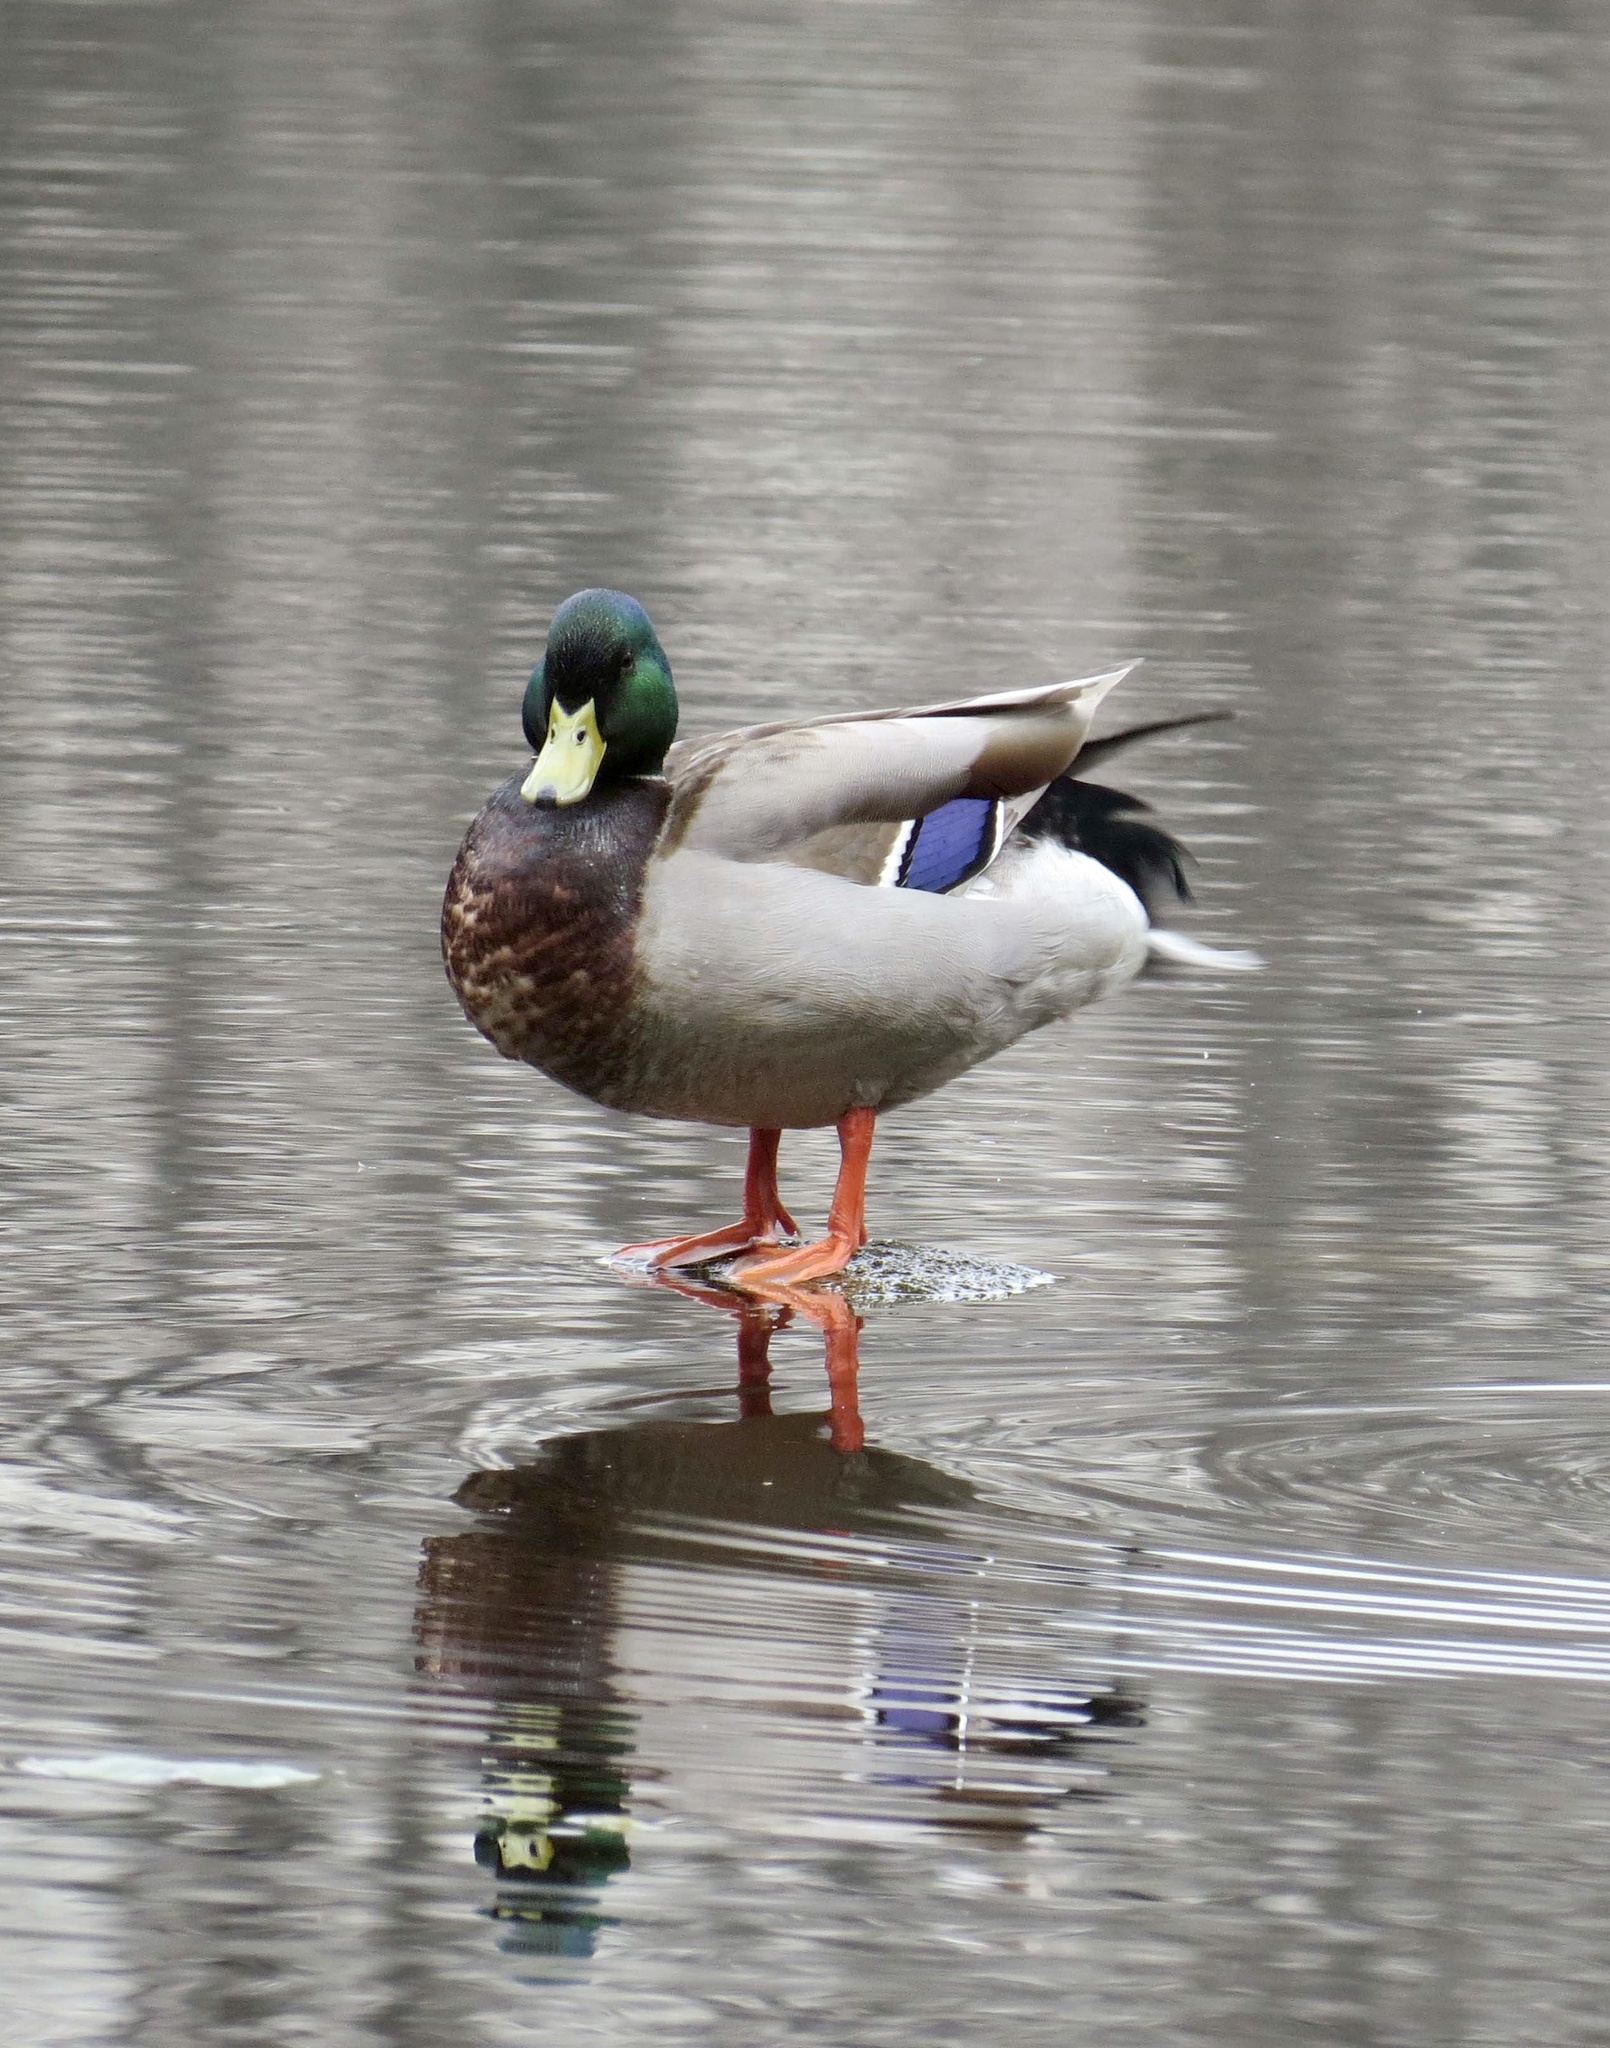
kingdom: Animalia
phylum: Chordata
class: Aves
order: Anseriformes
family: Anatidae
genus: Anas
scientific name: Anas platyrhynchos
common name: Mallard
